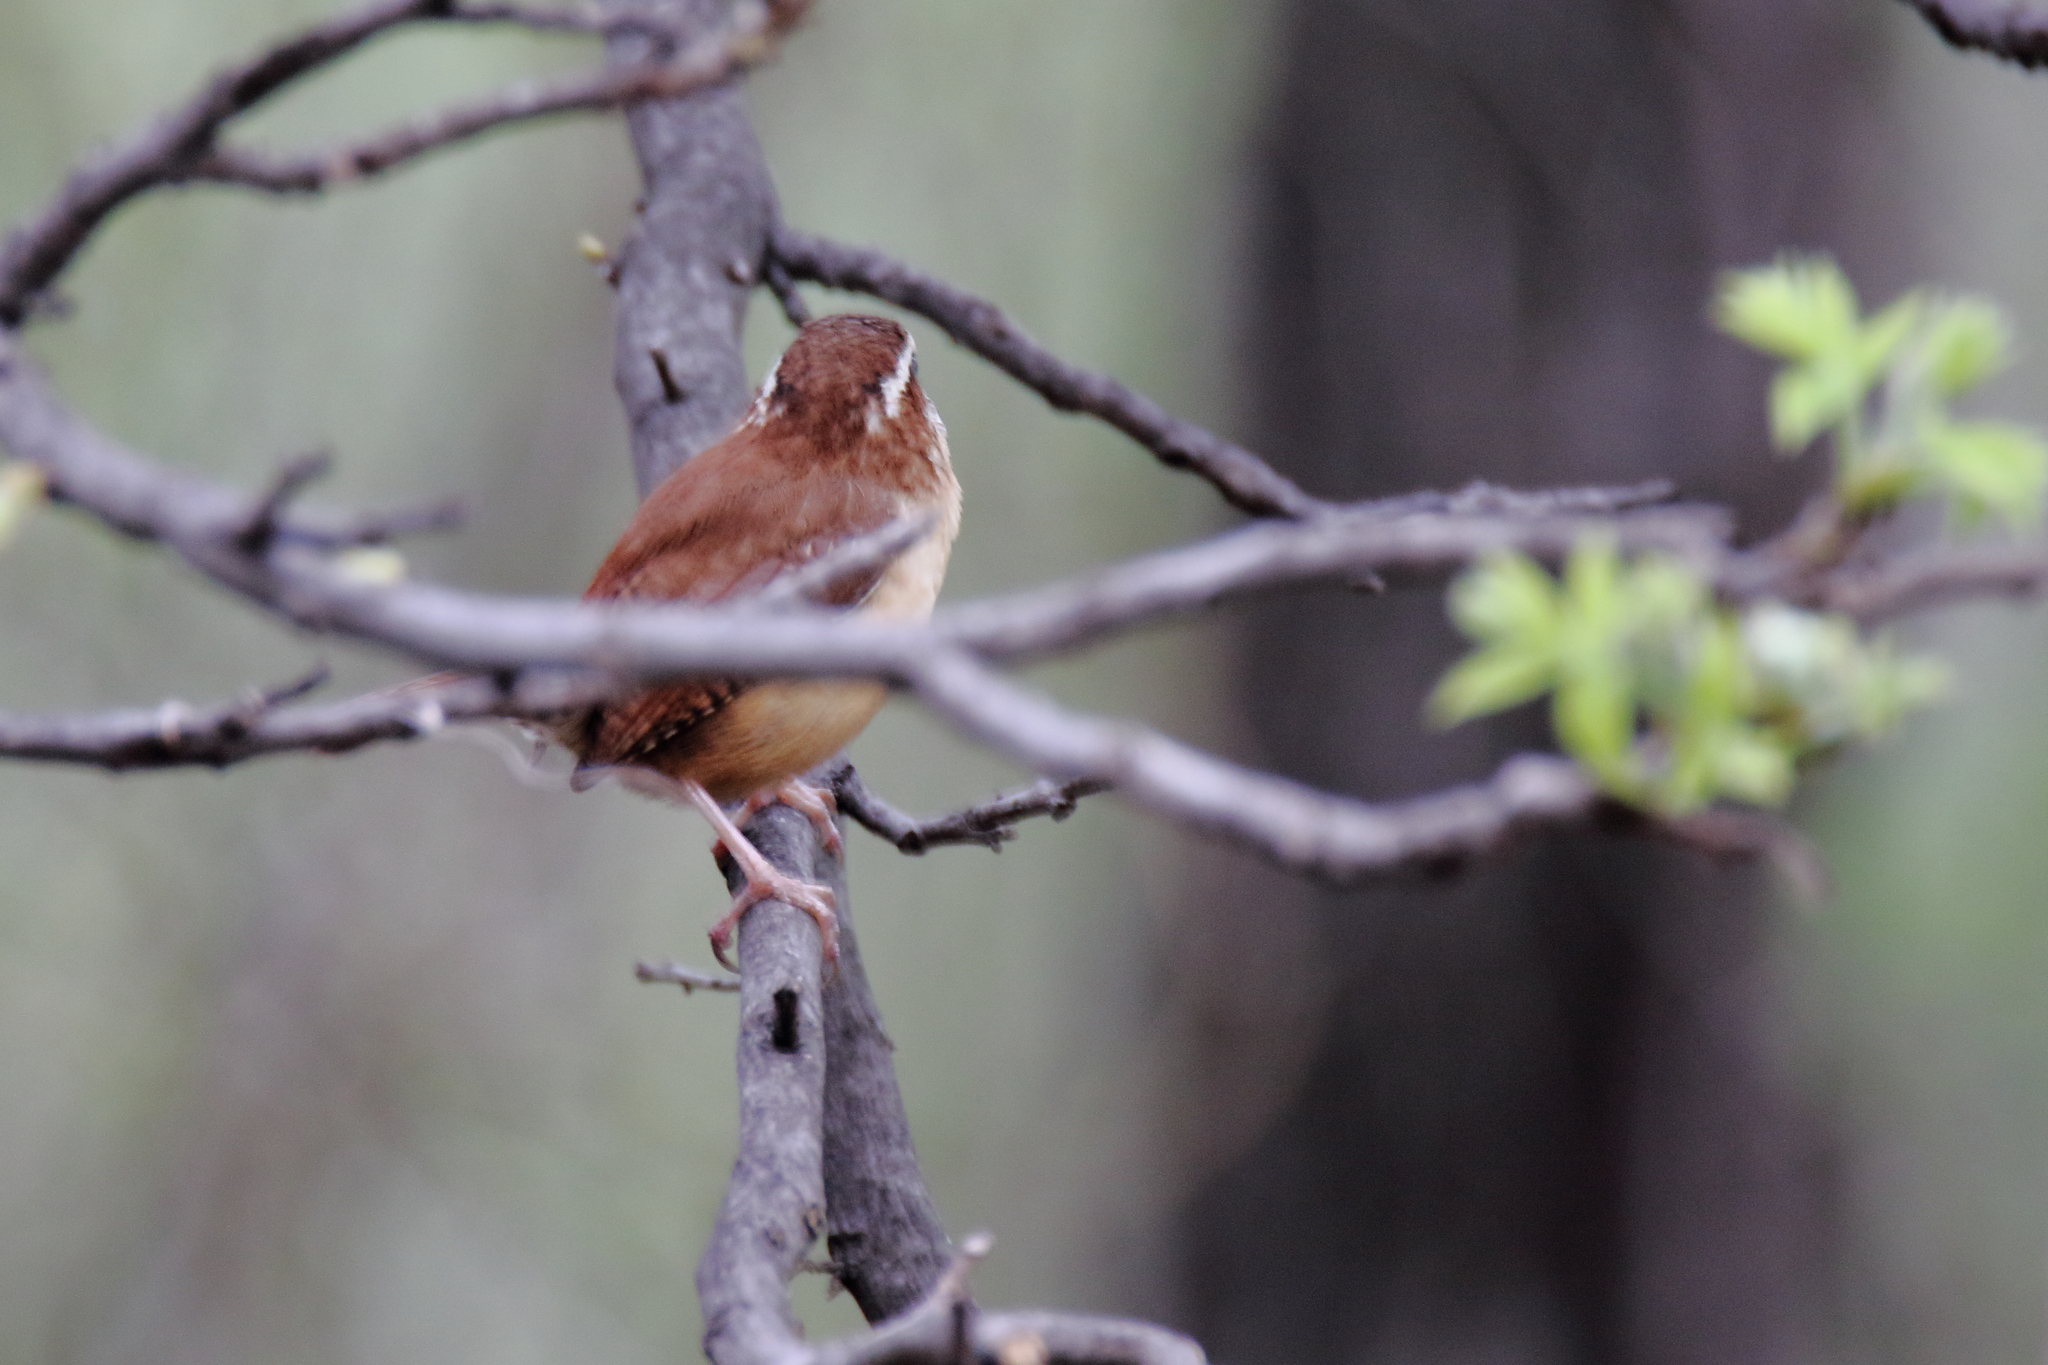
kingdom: Animalia
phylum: Chordata
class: Aves
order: Passeriformes
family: Troglodytidae
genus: Thryothorus
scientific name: Thryothorus ludovicianus
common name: Carolina wren
